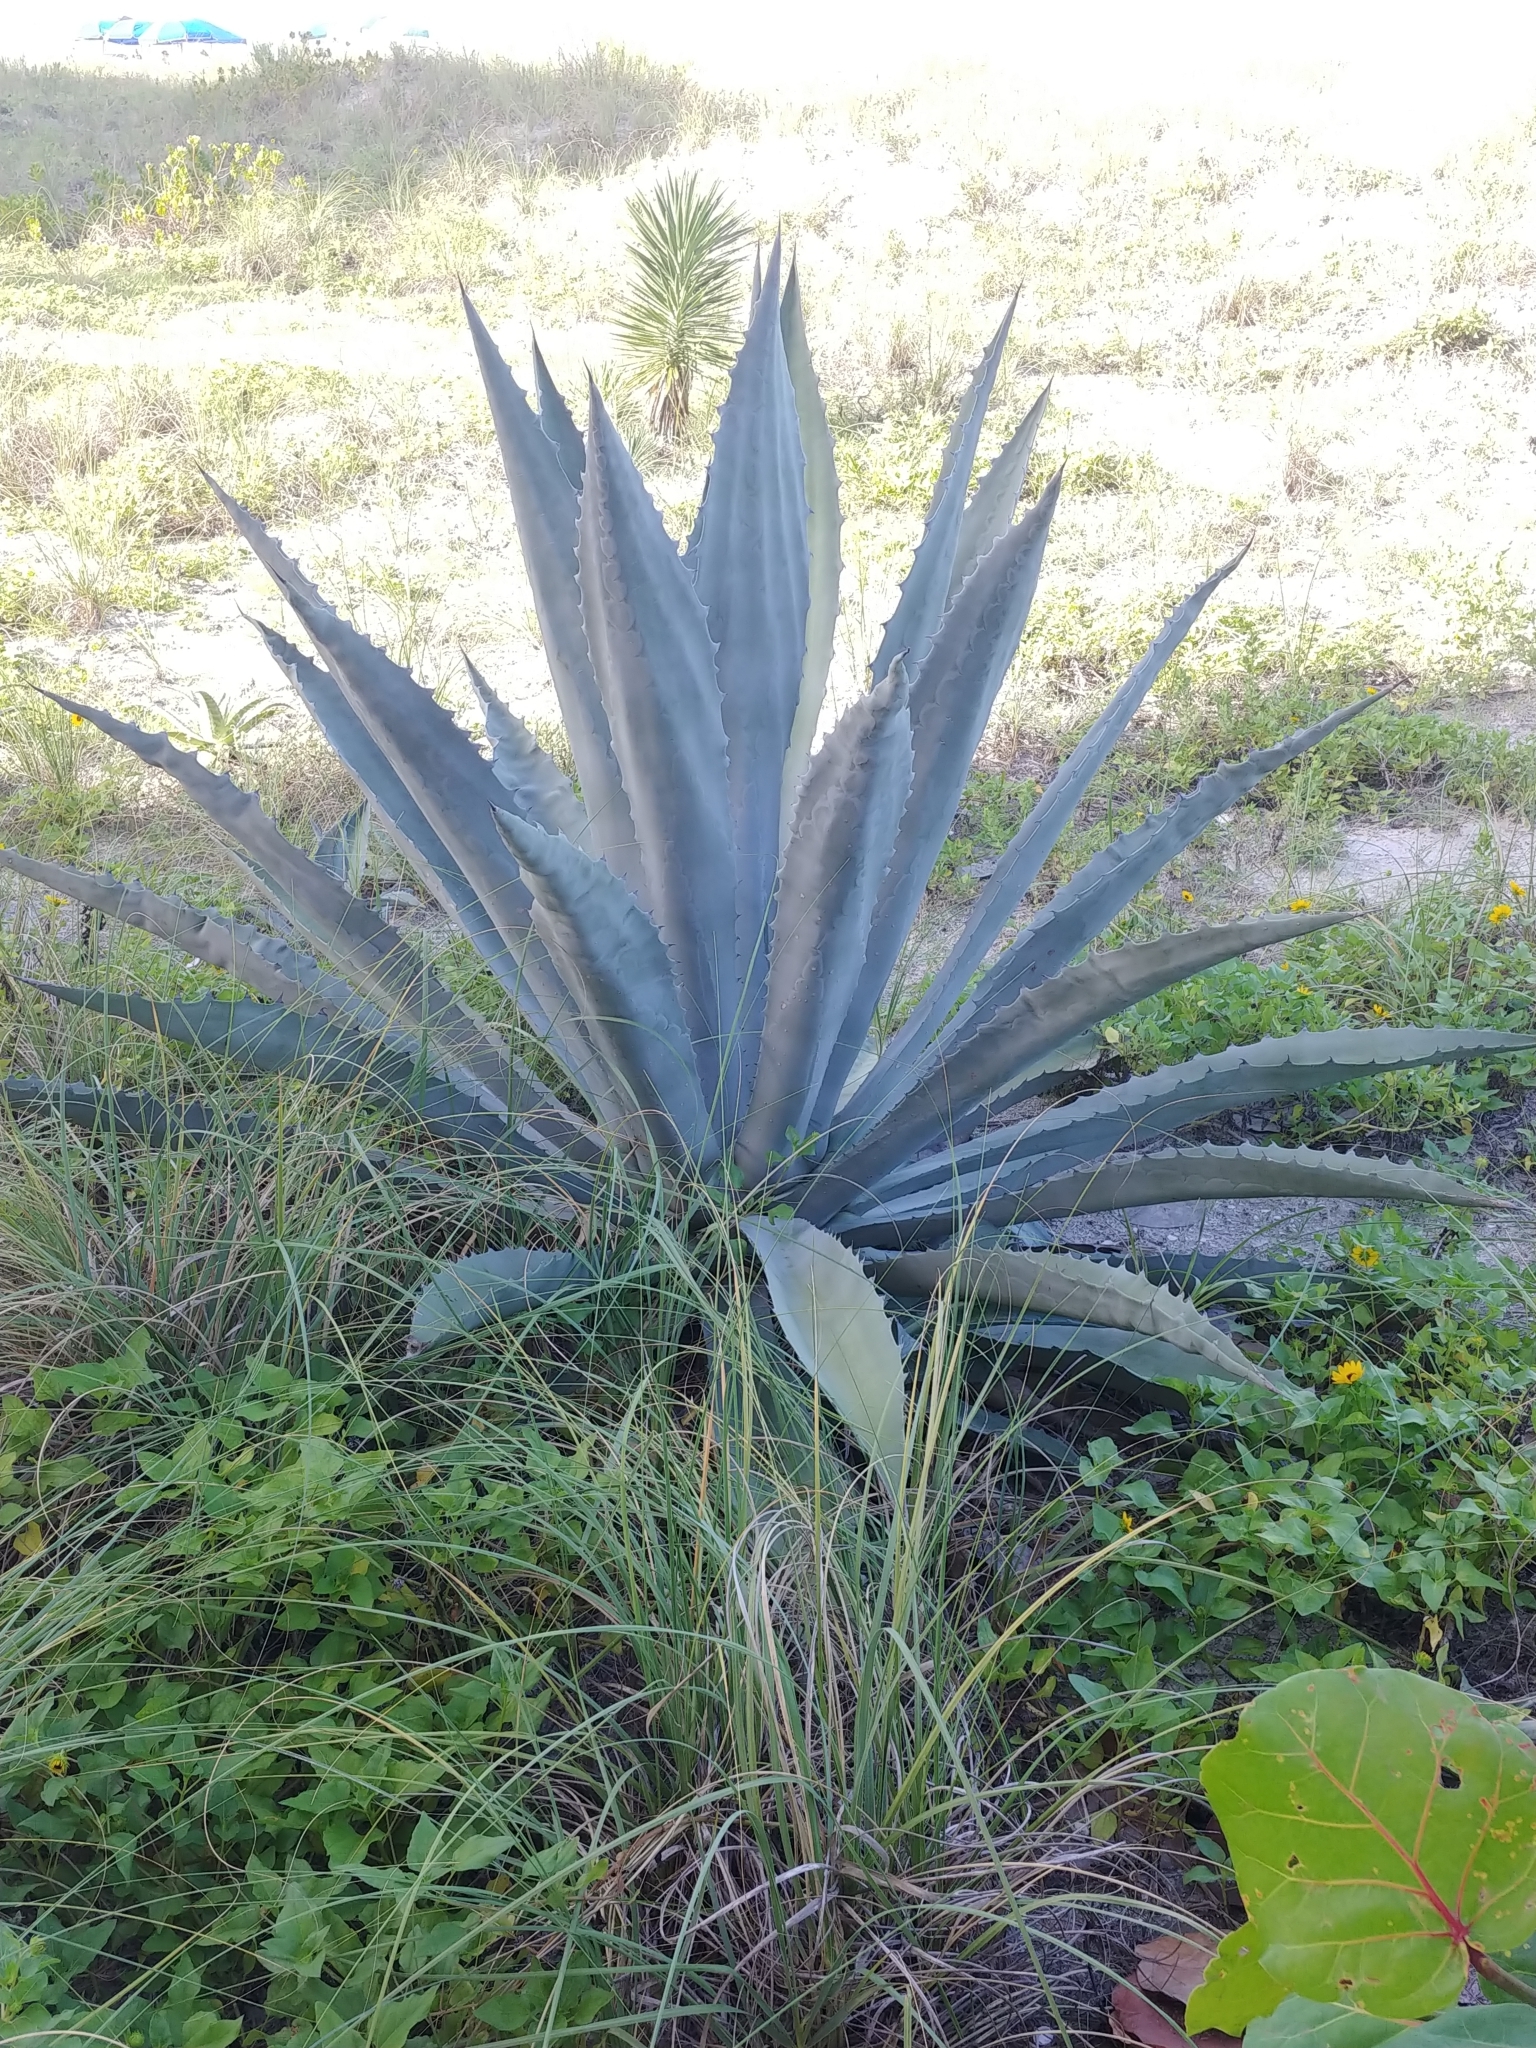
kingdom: Plantae
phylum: Tracheophyta
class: Liliopsida
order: Asparagales
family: Asparagaceae
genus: Agave
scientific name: Agave americana
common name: Centuryplant
